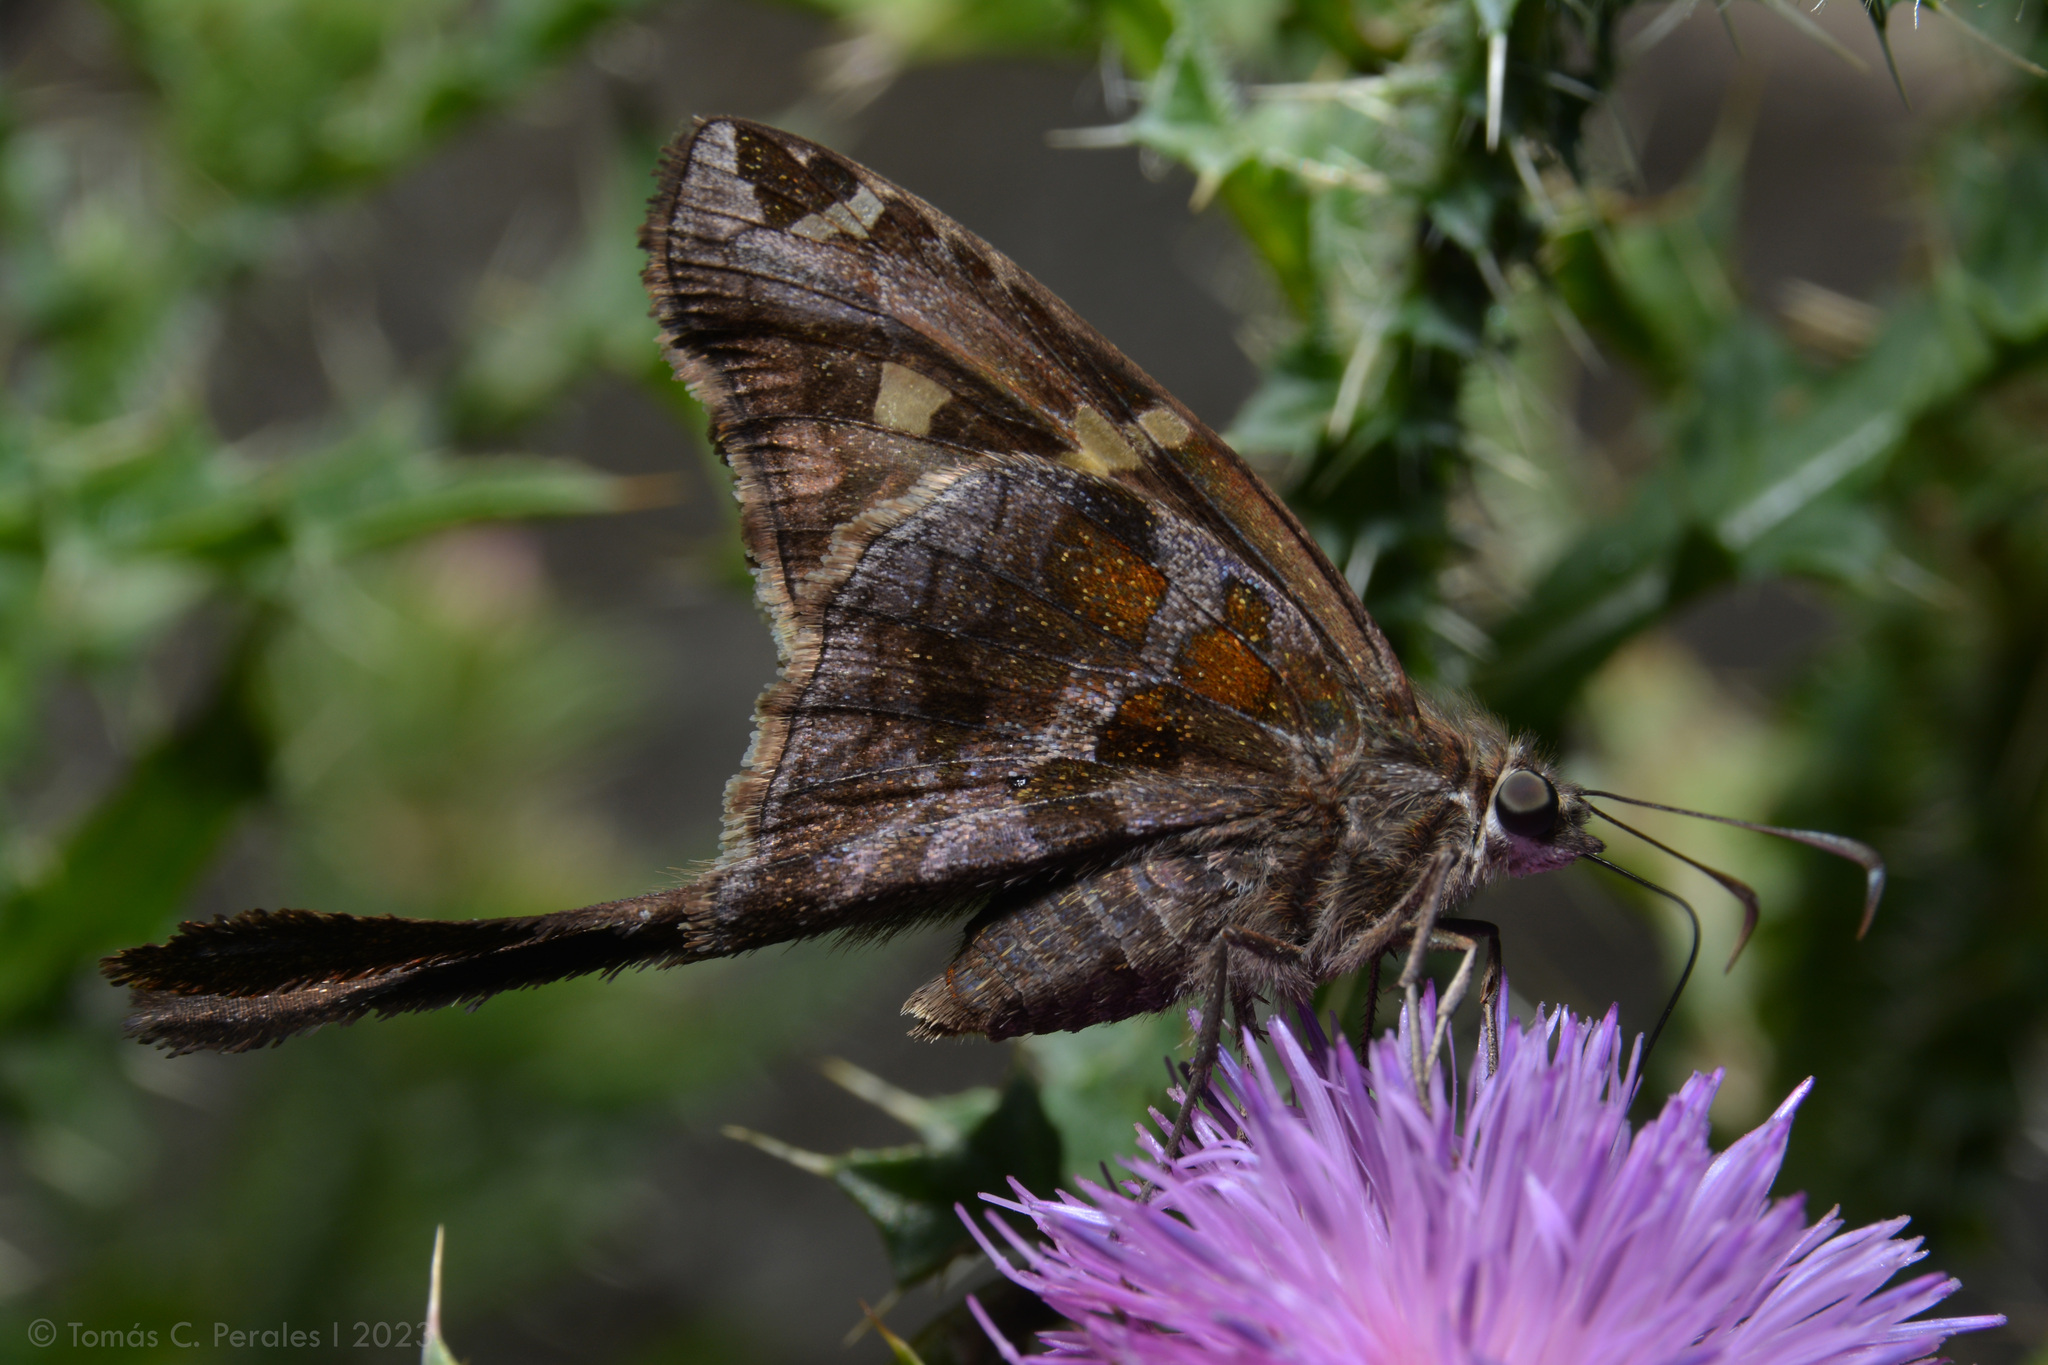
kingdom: Animalia
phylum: Arthropoda
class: Insecta
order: Lepidoptera
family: Hesperiidae
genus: Chioides
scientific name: Chioides catillus
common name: Silverbanded skipper
